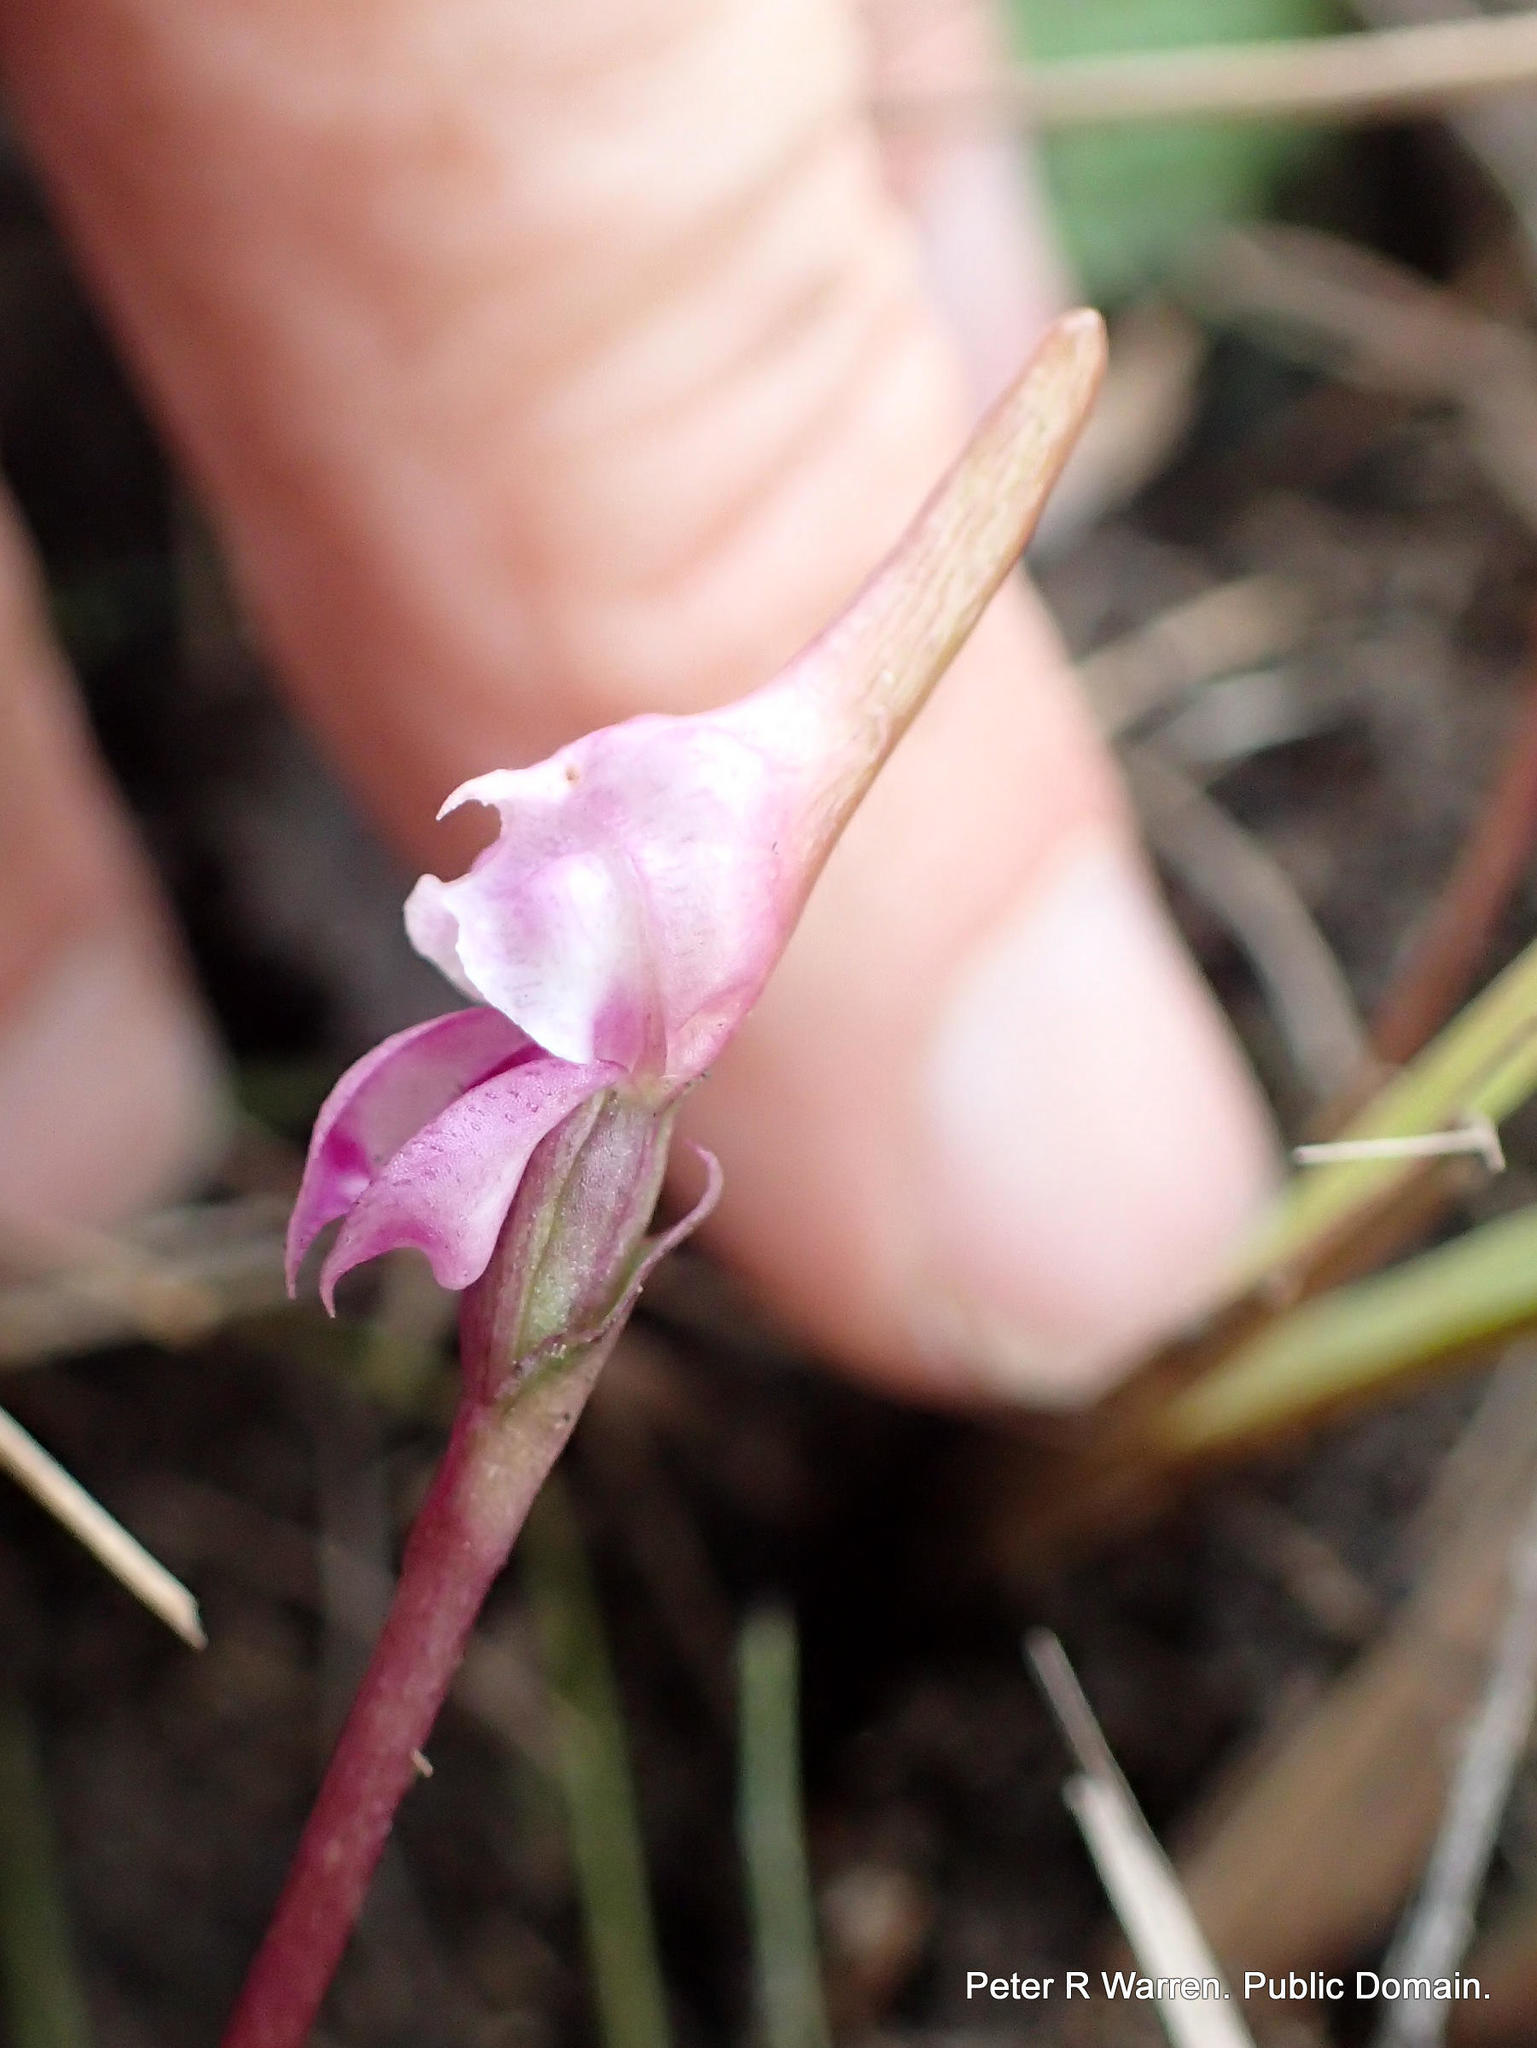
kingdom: Plantae
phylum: Tracheophyta
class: Liliopsida
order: Asparagales
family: Orchidaceae
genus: Disperis
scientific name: Disperis woodii
